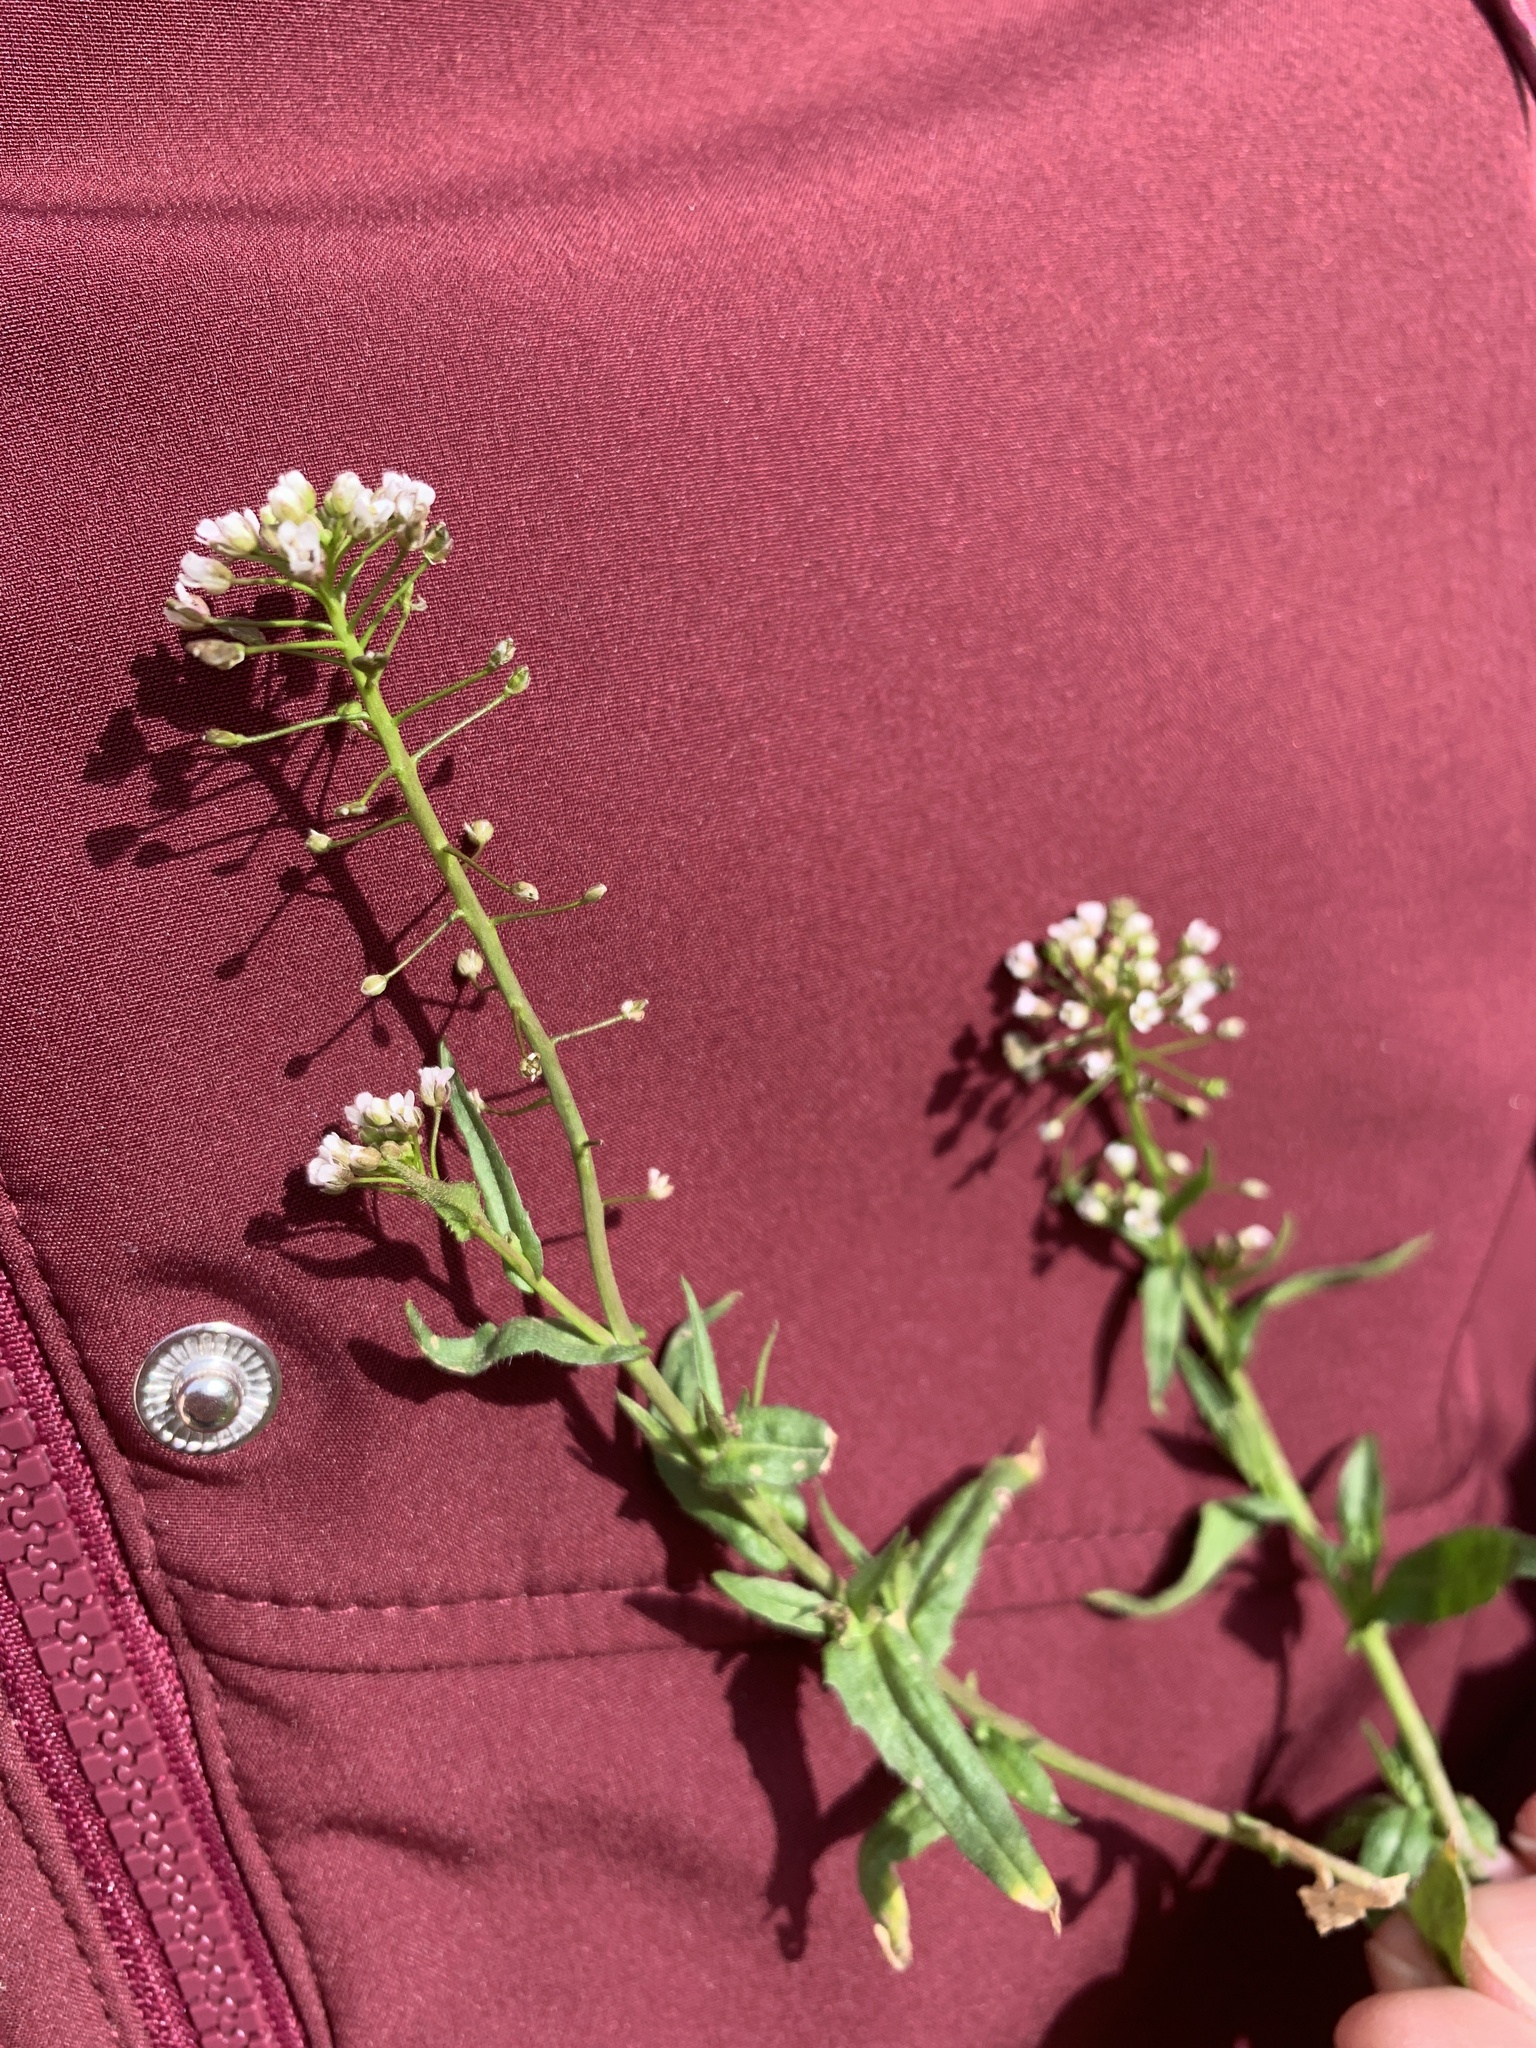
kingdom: Plantae
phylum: Tracheophyta
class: Magnoliopsida
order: Brassicales
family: Brassicaceae
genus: Capsella
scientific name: Capsella bursa-pastoris
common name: Shepherd's purse
